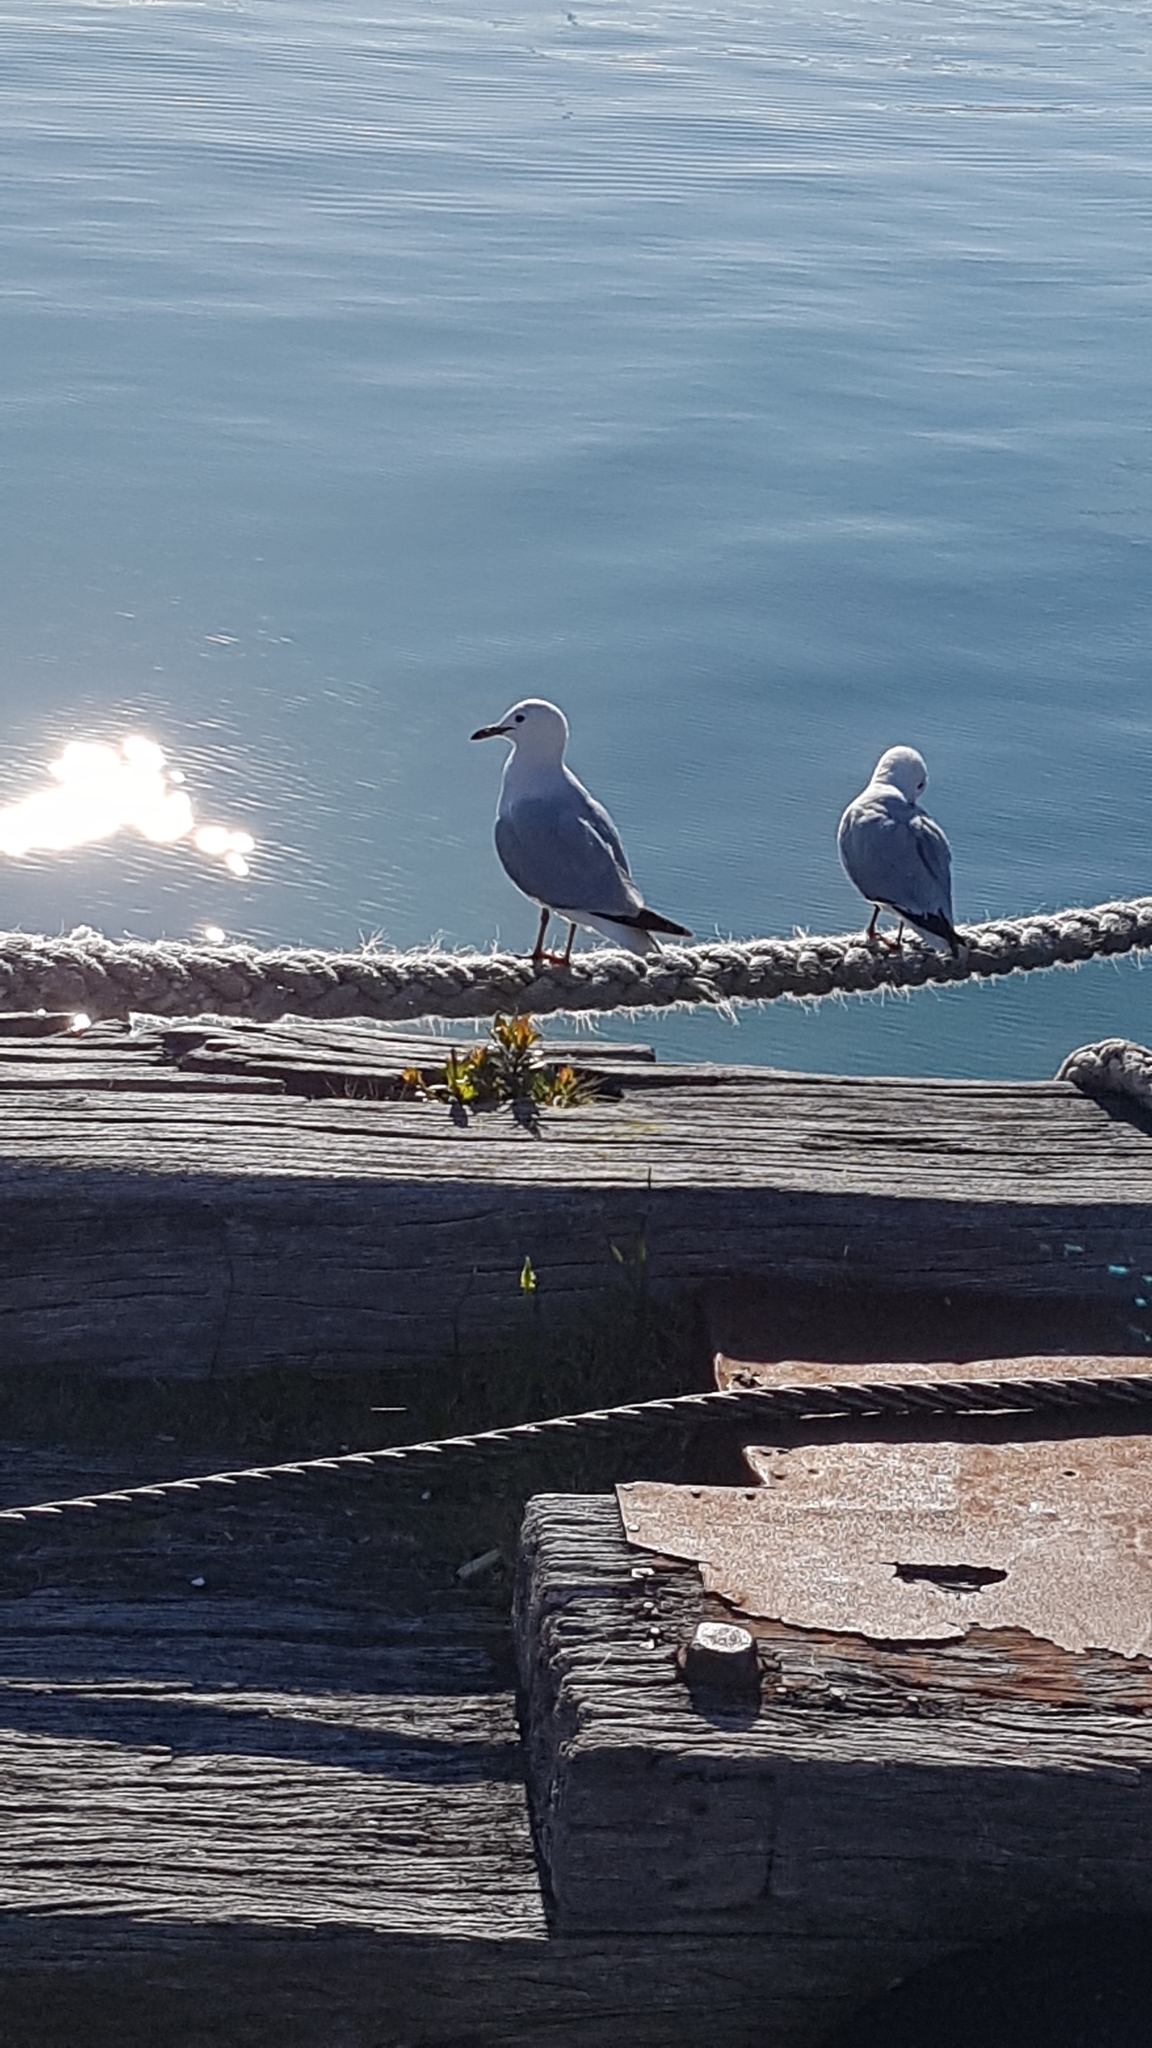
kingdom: Animalia
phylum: Chordata
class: Aves
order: Charadriiformes
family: Laridae
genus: Chroicocephalus
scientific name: Chroicocephalus novaehollandiae
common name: Silver gull
